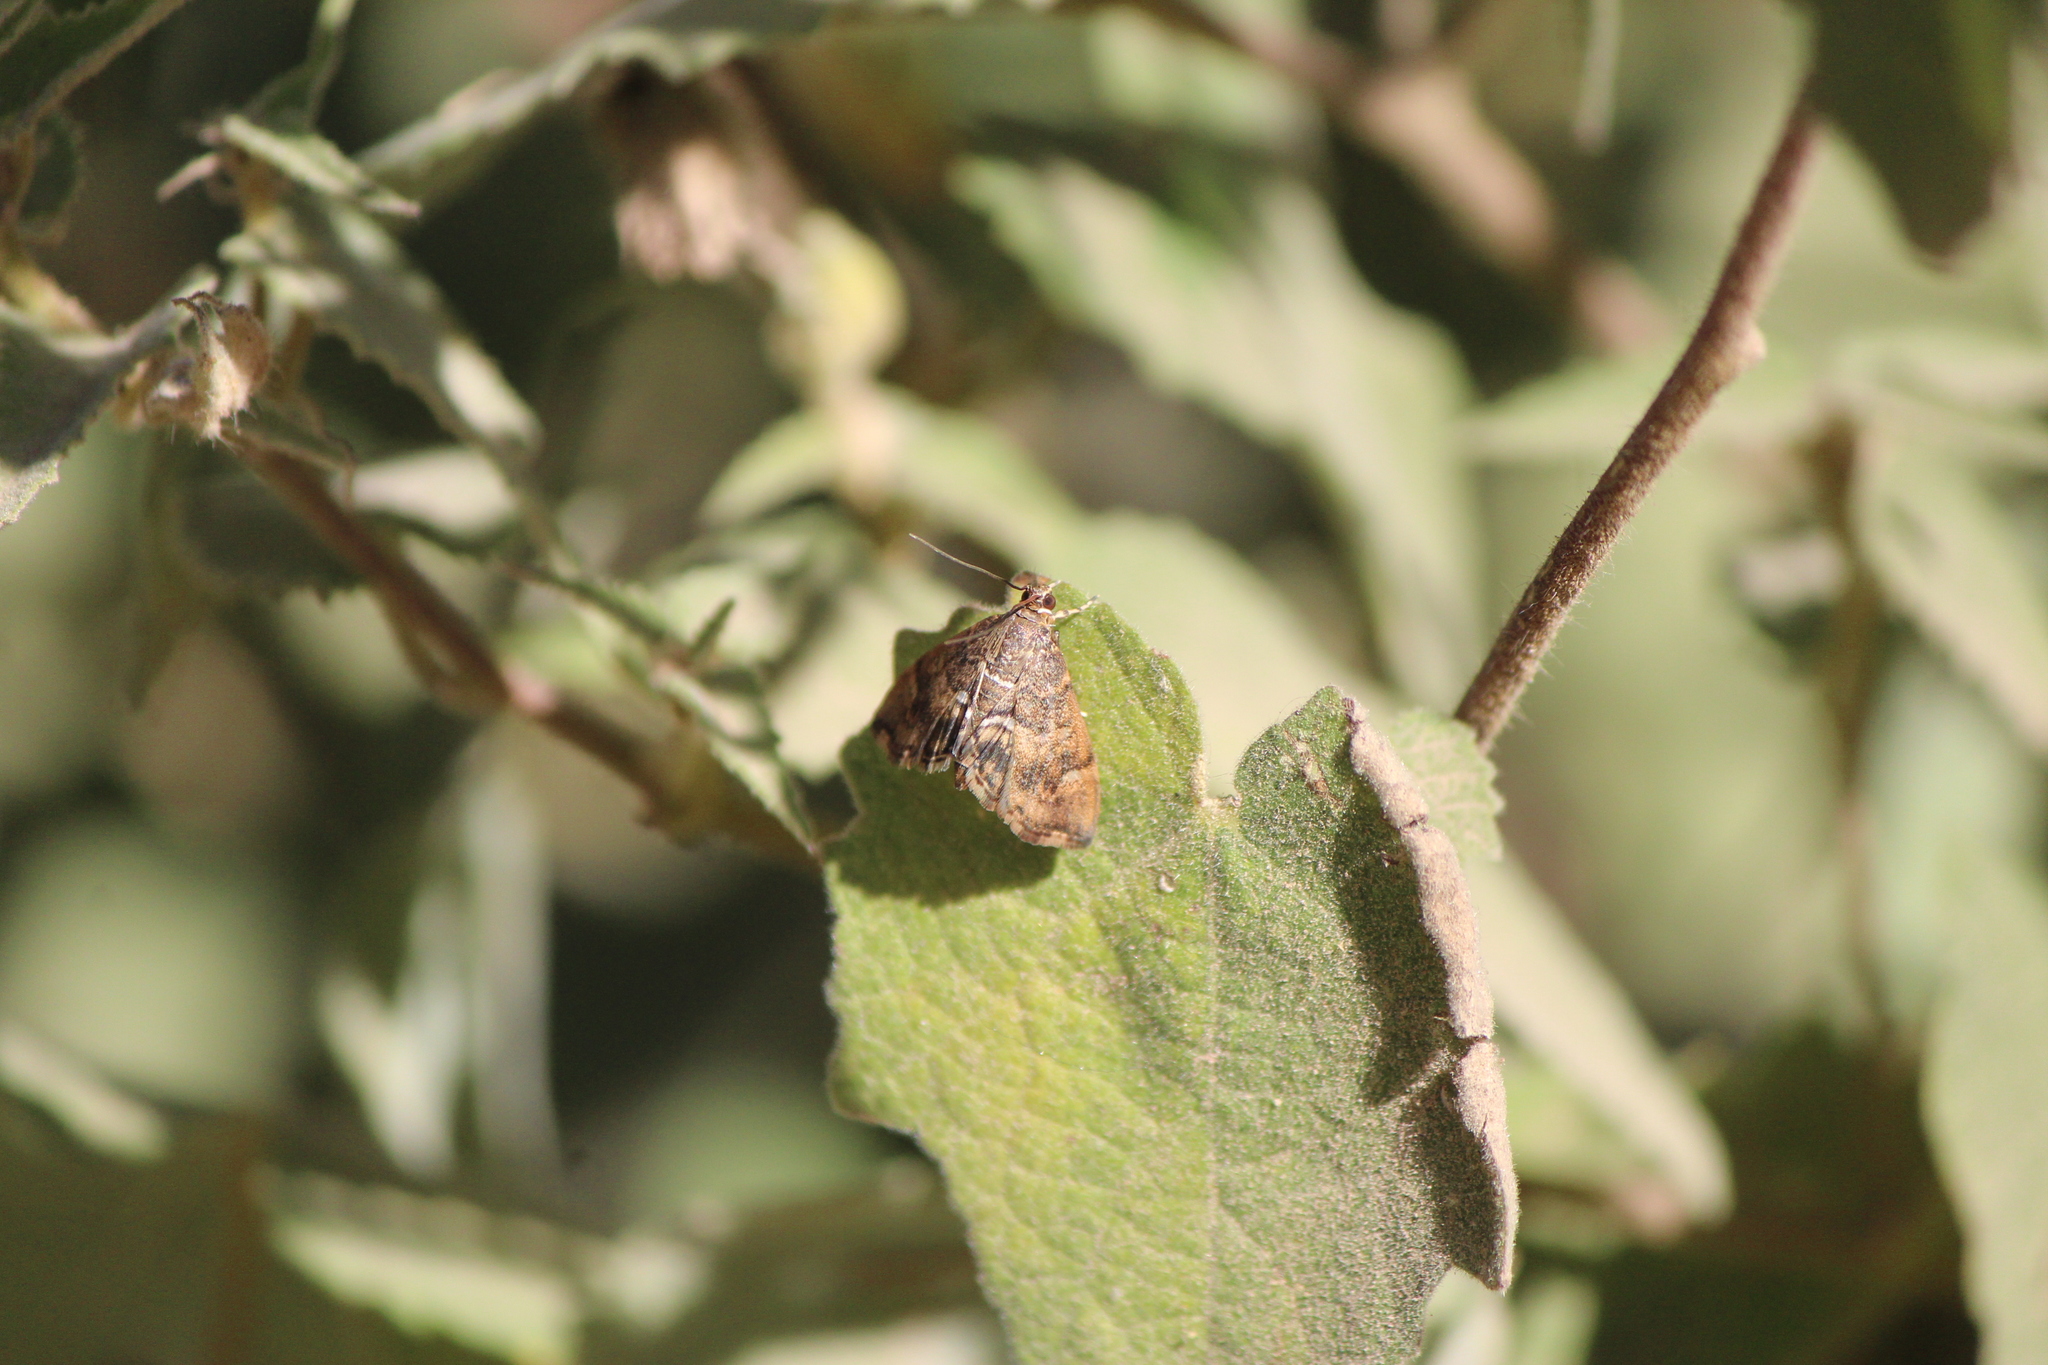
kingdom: Animalia
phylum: Arthropoda
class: Insecta
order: Lepidoptera
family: Crambidae
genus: Hymenia
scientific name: Hymenia perspectalis
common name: Spotted beet webworm
